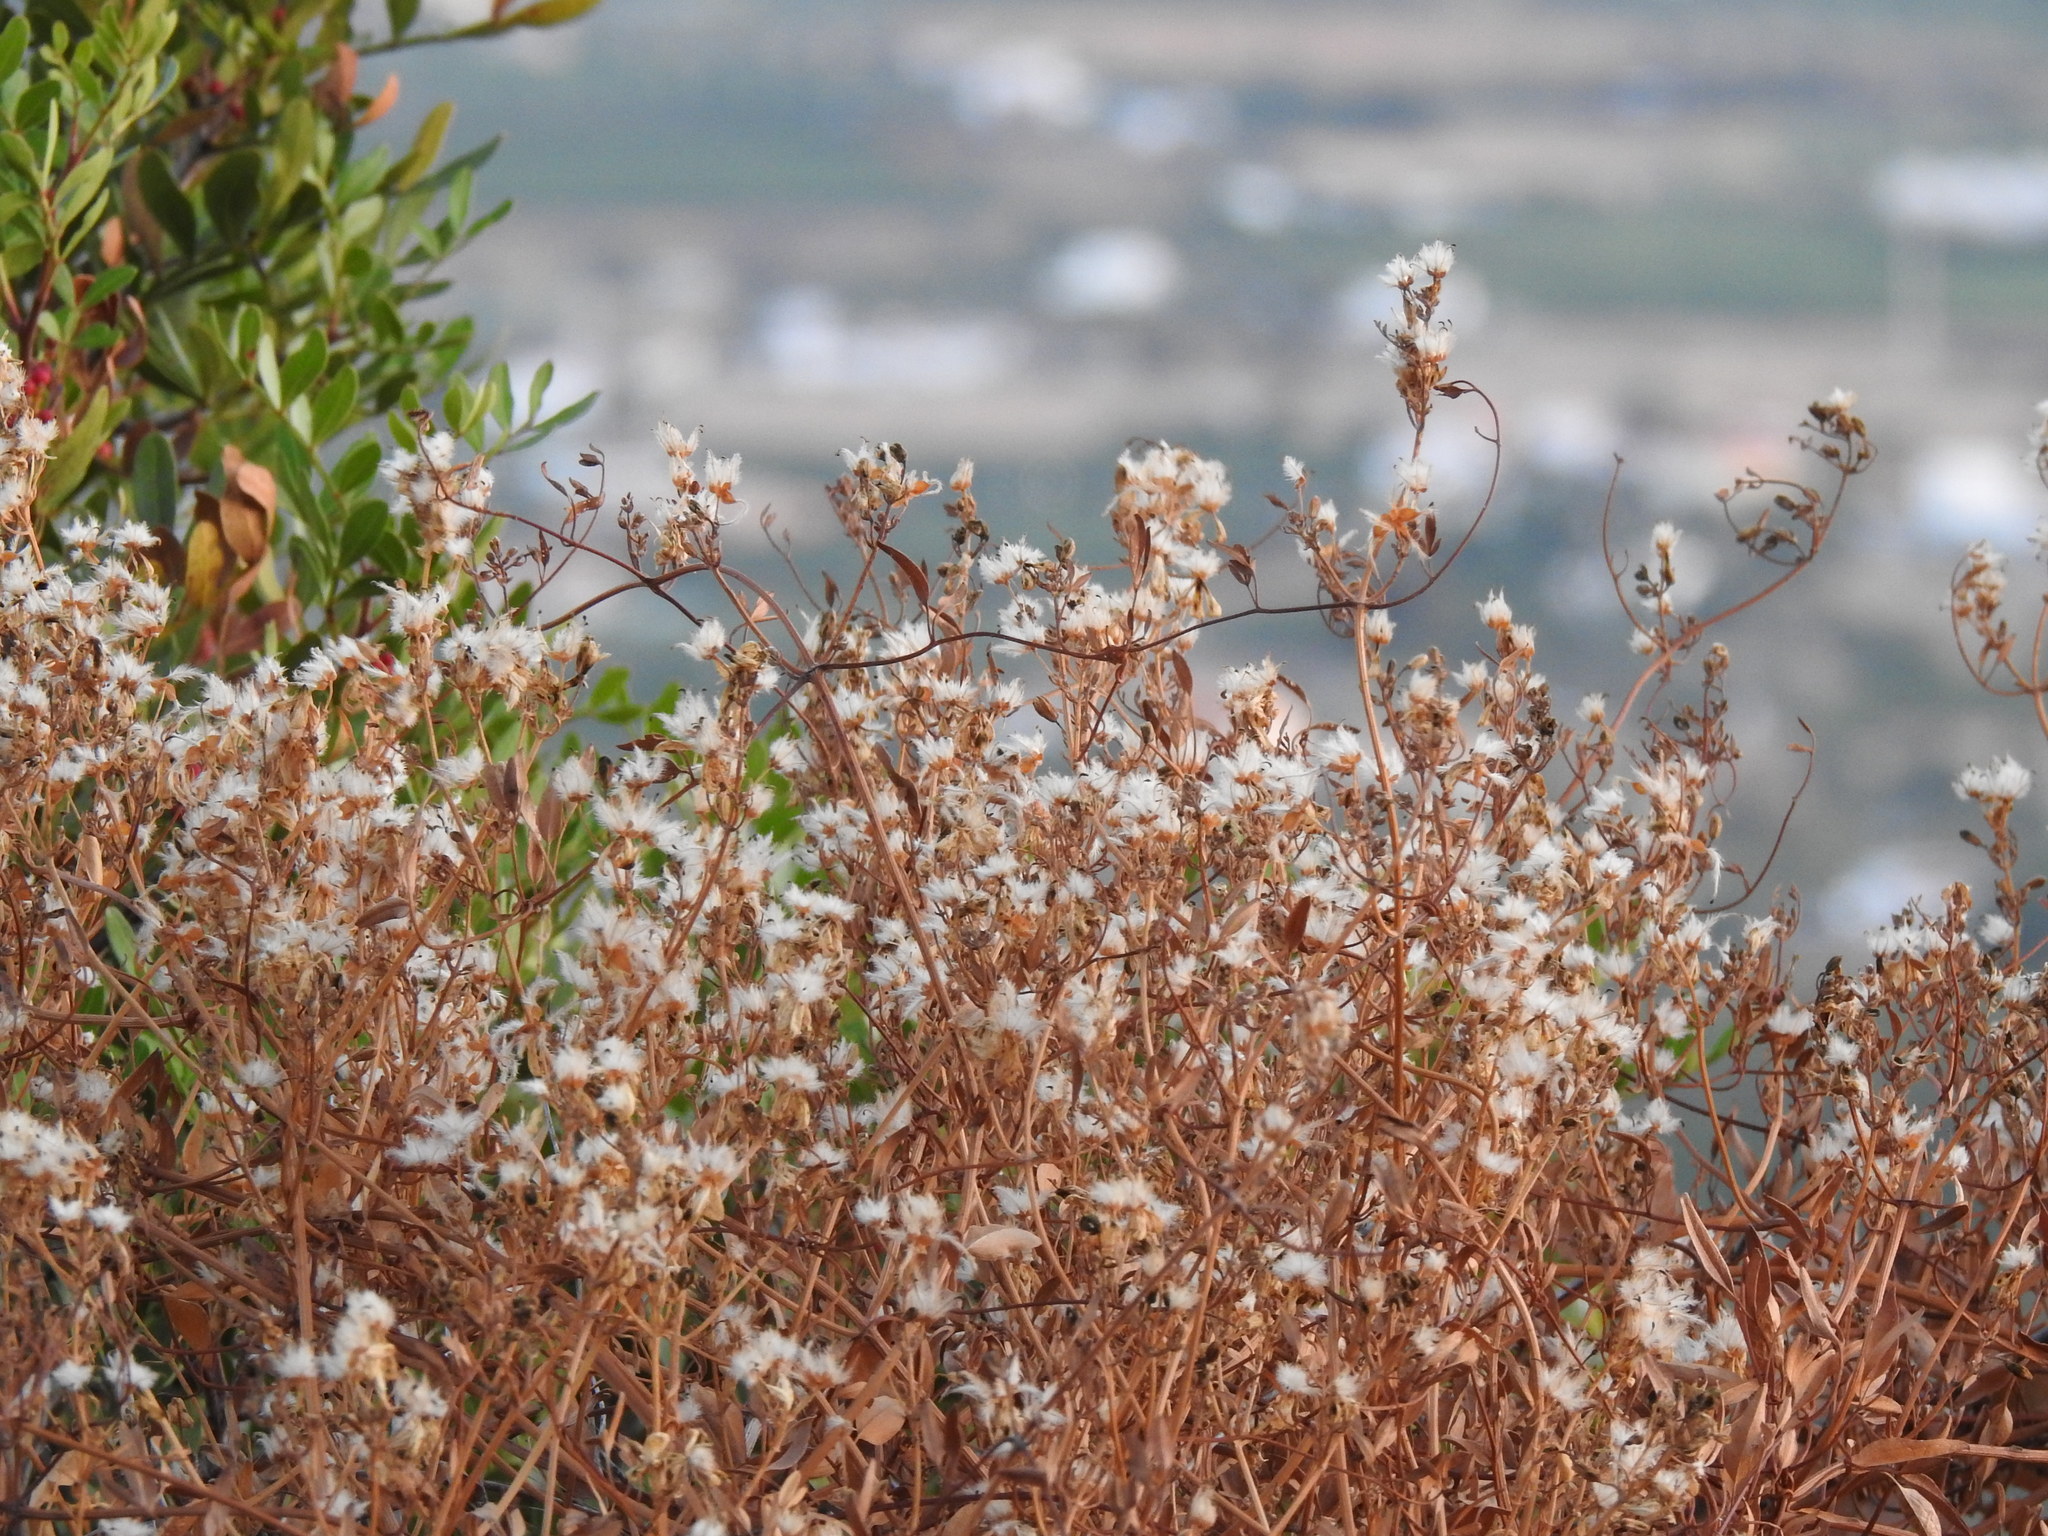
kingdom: Plantae
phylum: Tracheophyta
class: Magnoliopsida
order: Ranunculales
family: Ranunculaceae
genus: Clematis
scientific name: Clematis flammula
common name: Virgin's-bower
